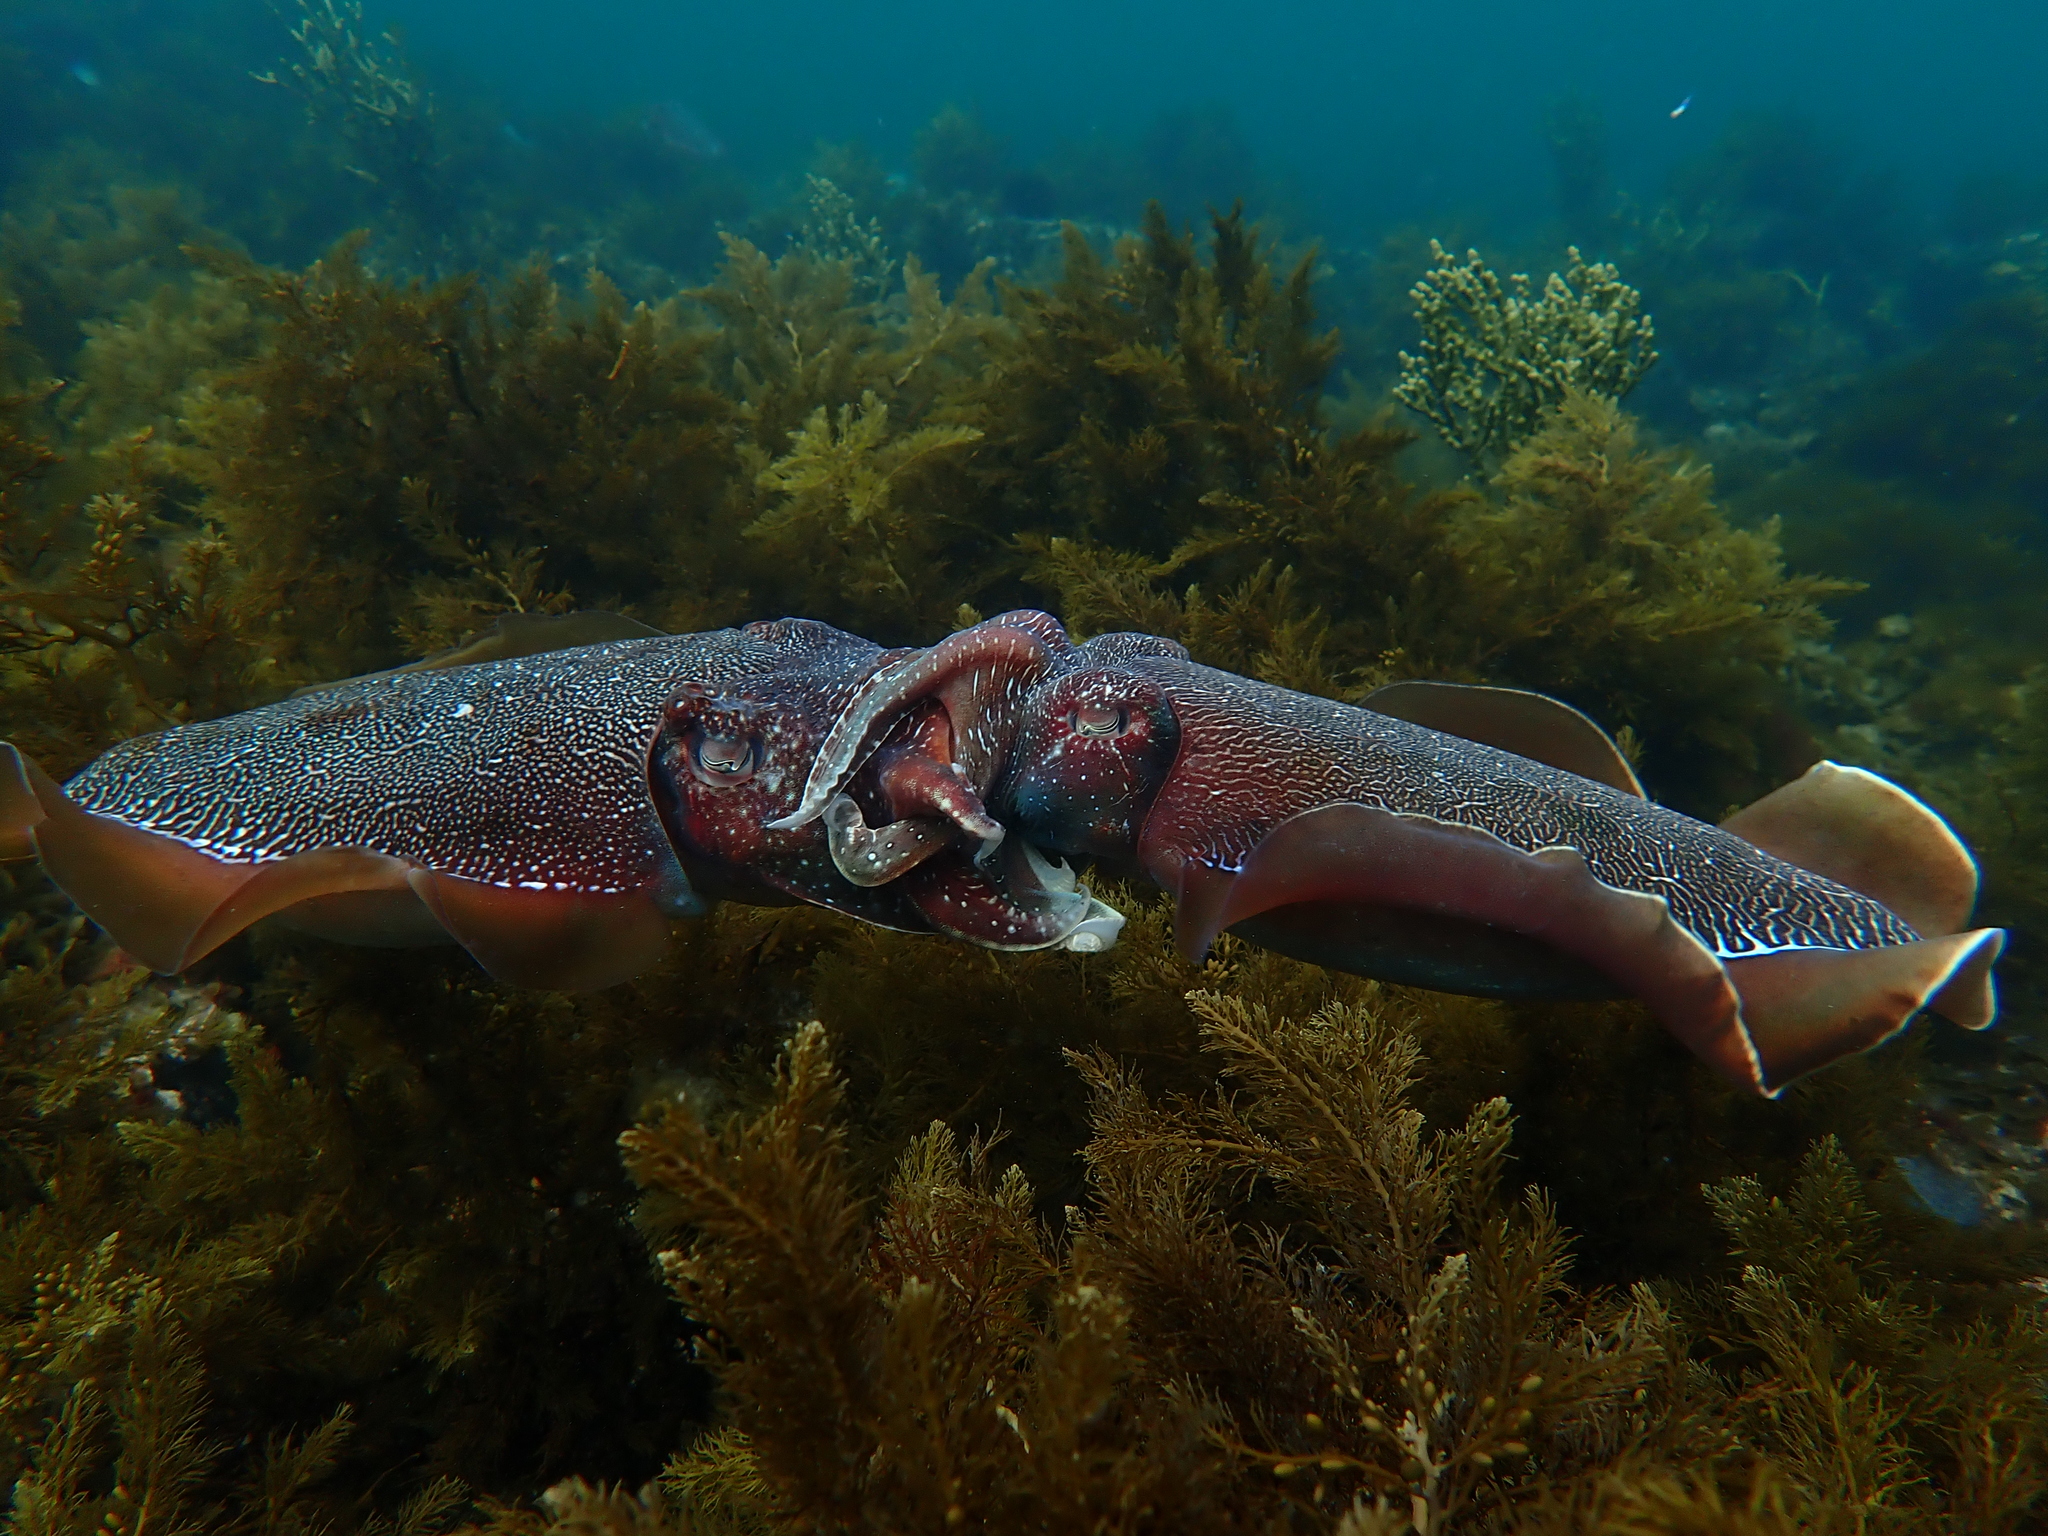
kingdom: Animalia
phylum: Mollusca
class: Cephalopoda
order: Sepiida
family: Sepiidae
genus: Ascarosepion
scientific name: Ascarosepion apama
